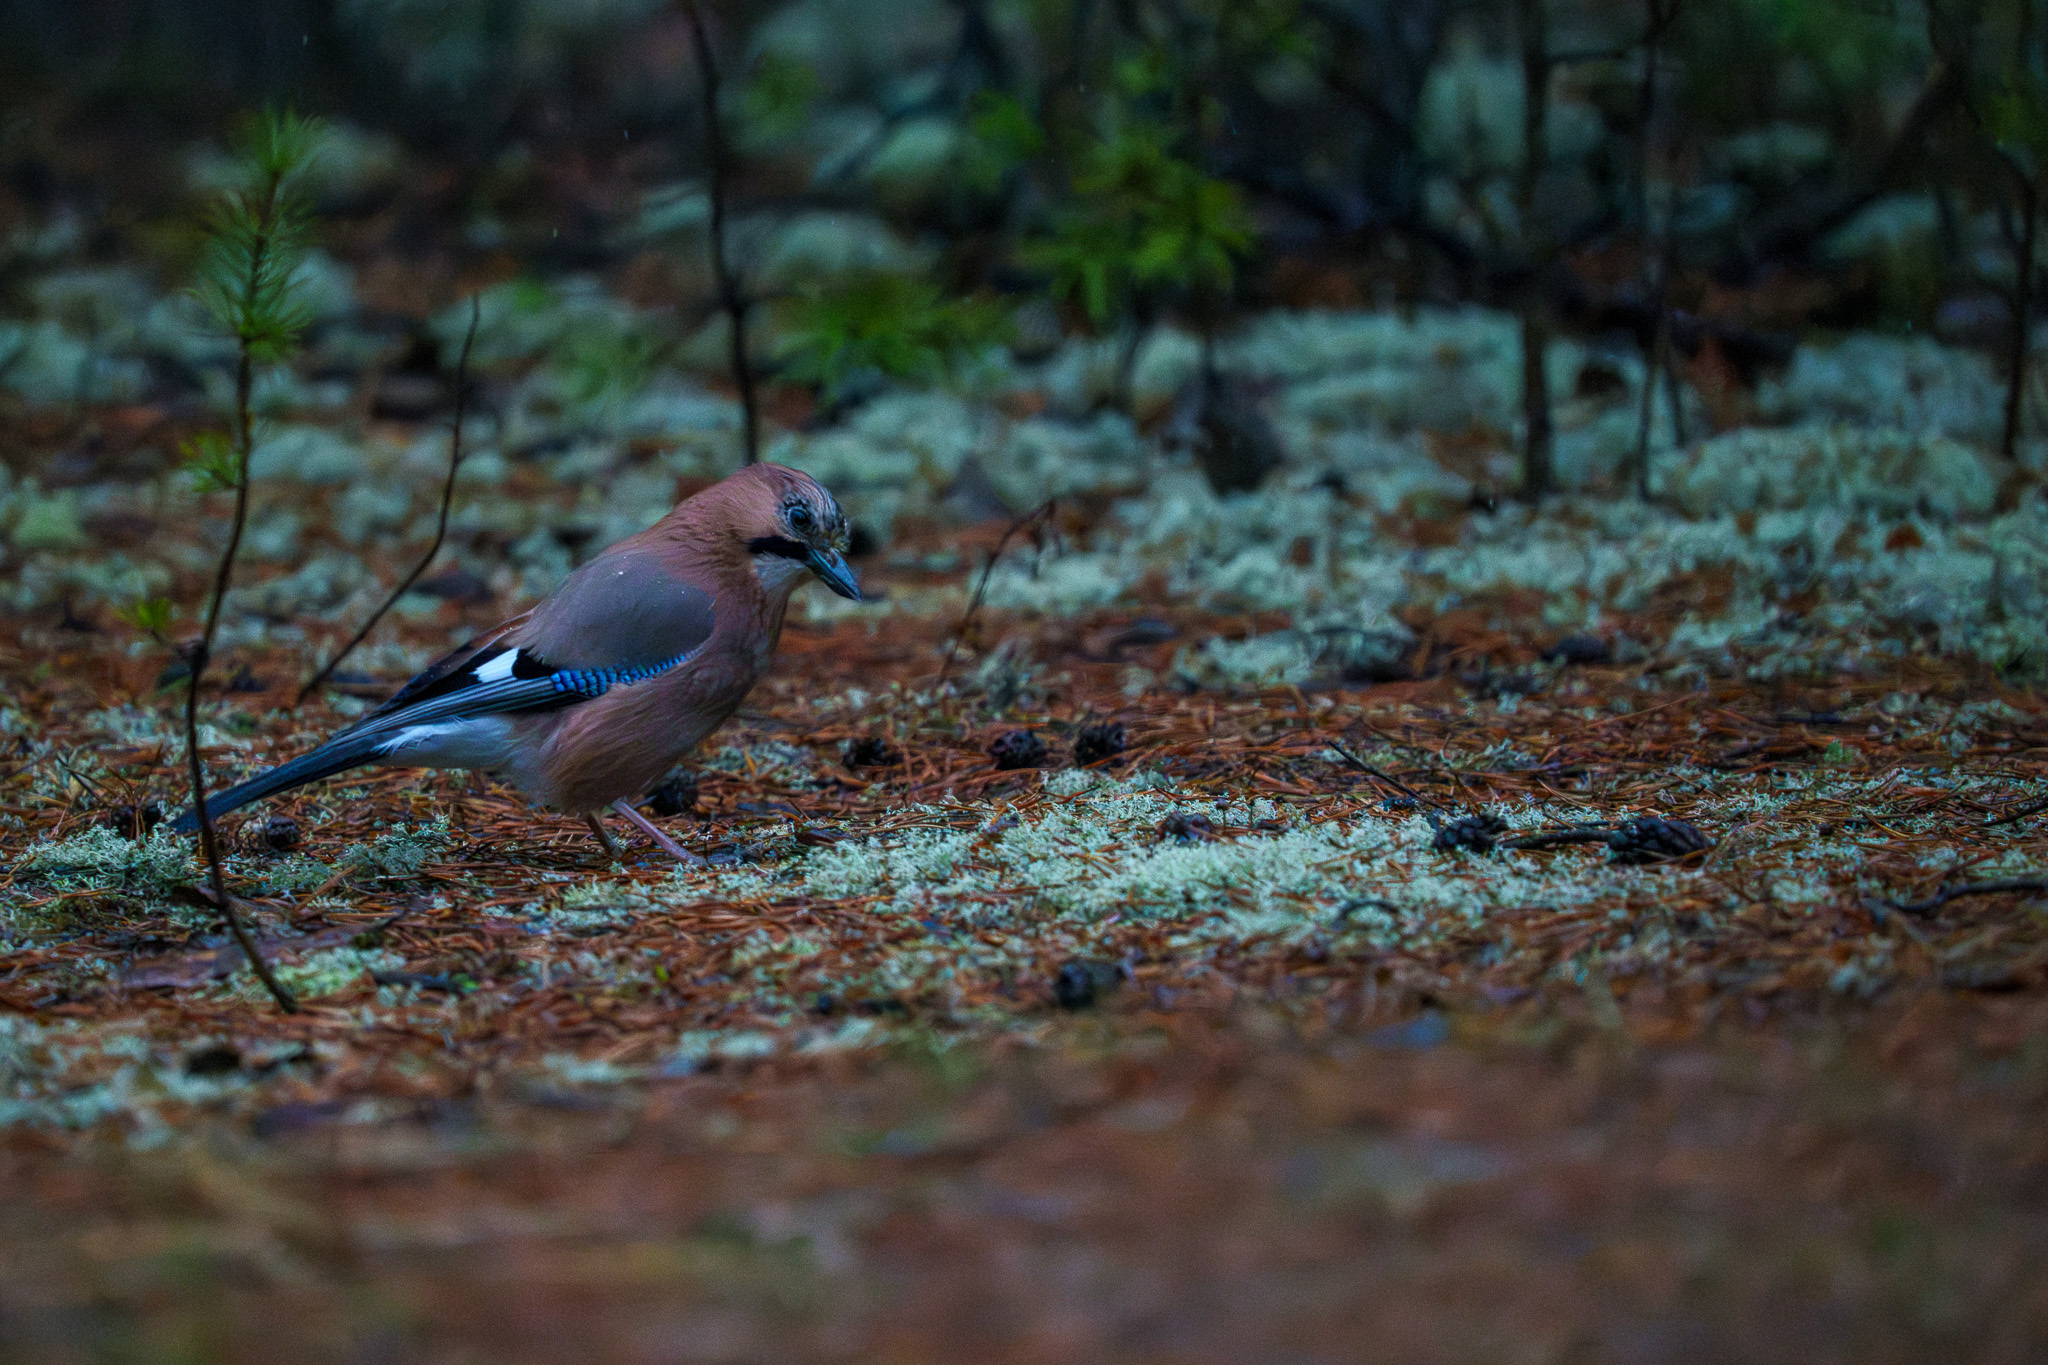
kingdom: Animalia
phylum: Chordata
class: Aves
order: Passeriformes
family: Corvidae
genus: Garrulus
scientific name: Garrulus glandarius
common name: Eurasian jay
